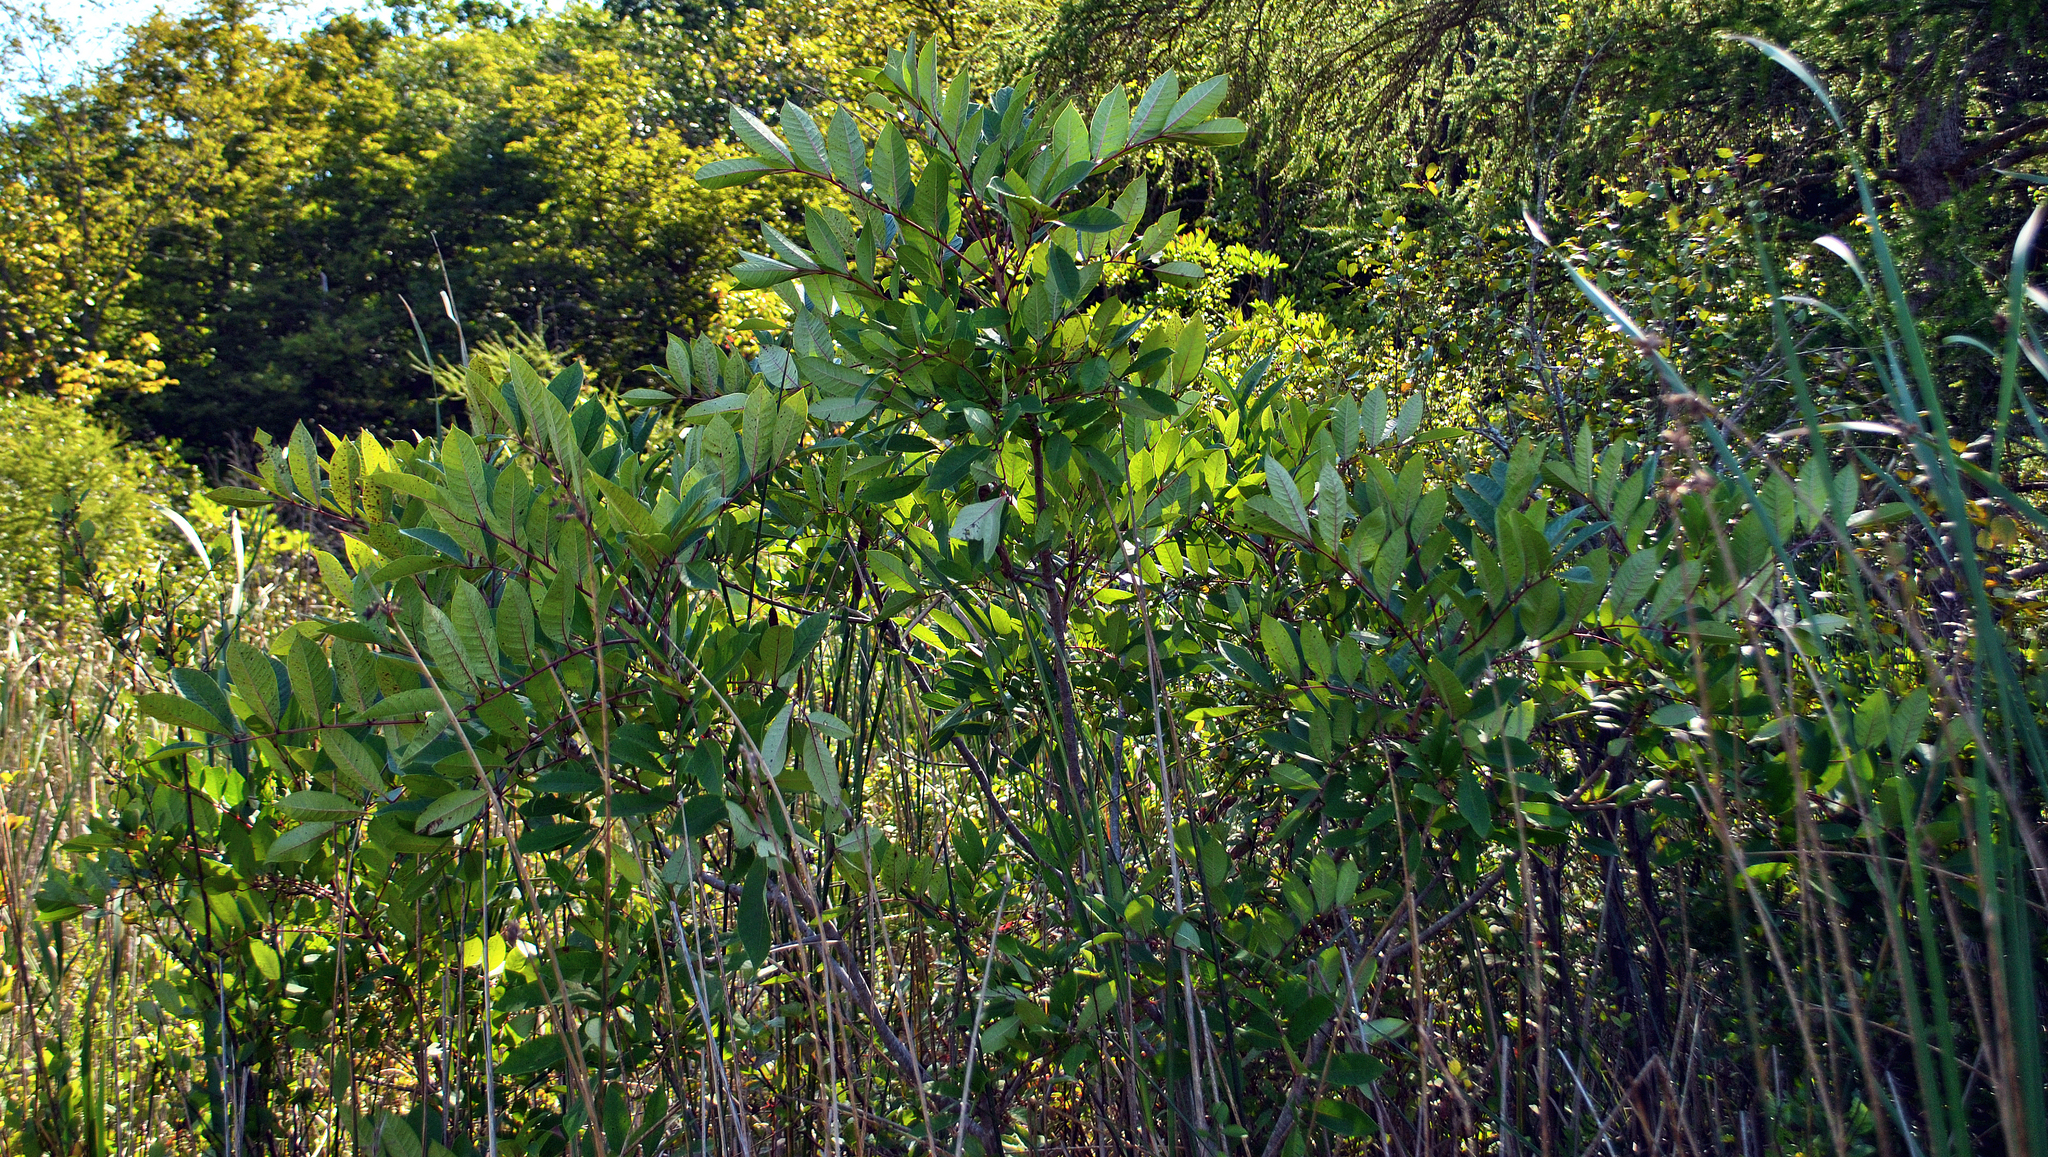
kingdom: Plantae
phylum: Tracheophyta
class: Magnoliopsida
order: Sapindales
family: Anacardiaceae
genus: Toxicodendron
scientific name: Toxicodendron vernix
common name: Poison sumac
